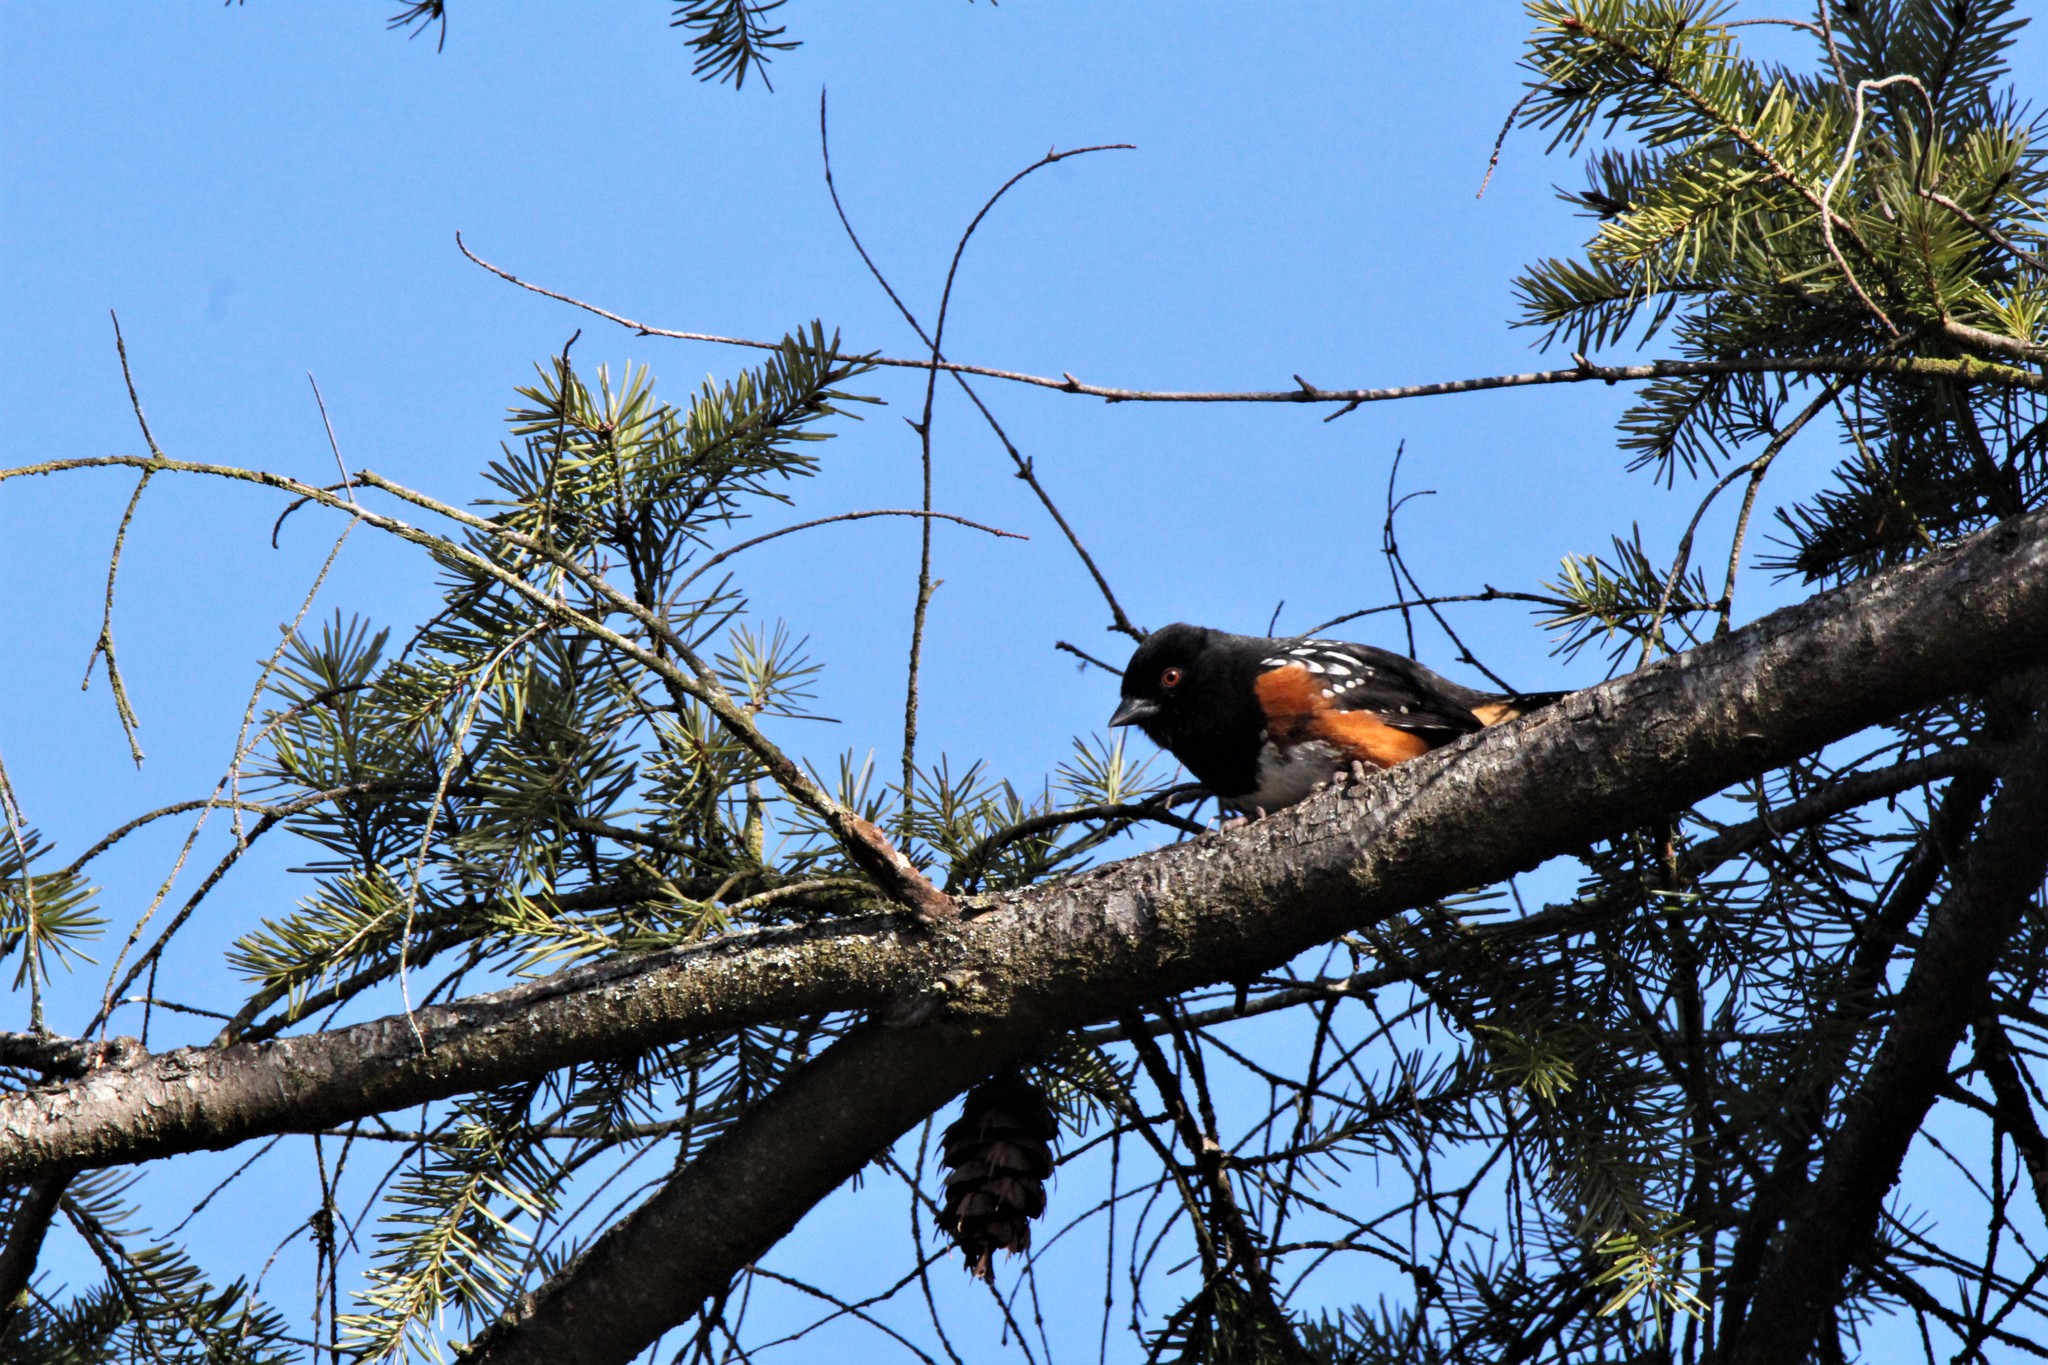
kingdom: Animalia
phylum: Chordata
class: Aves
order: Passeriformes
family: Passerellidae
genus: Pipilo
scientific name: Pipilo maculatus
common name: Spotted towhee
